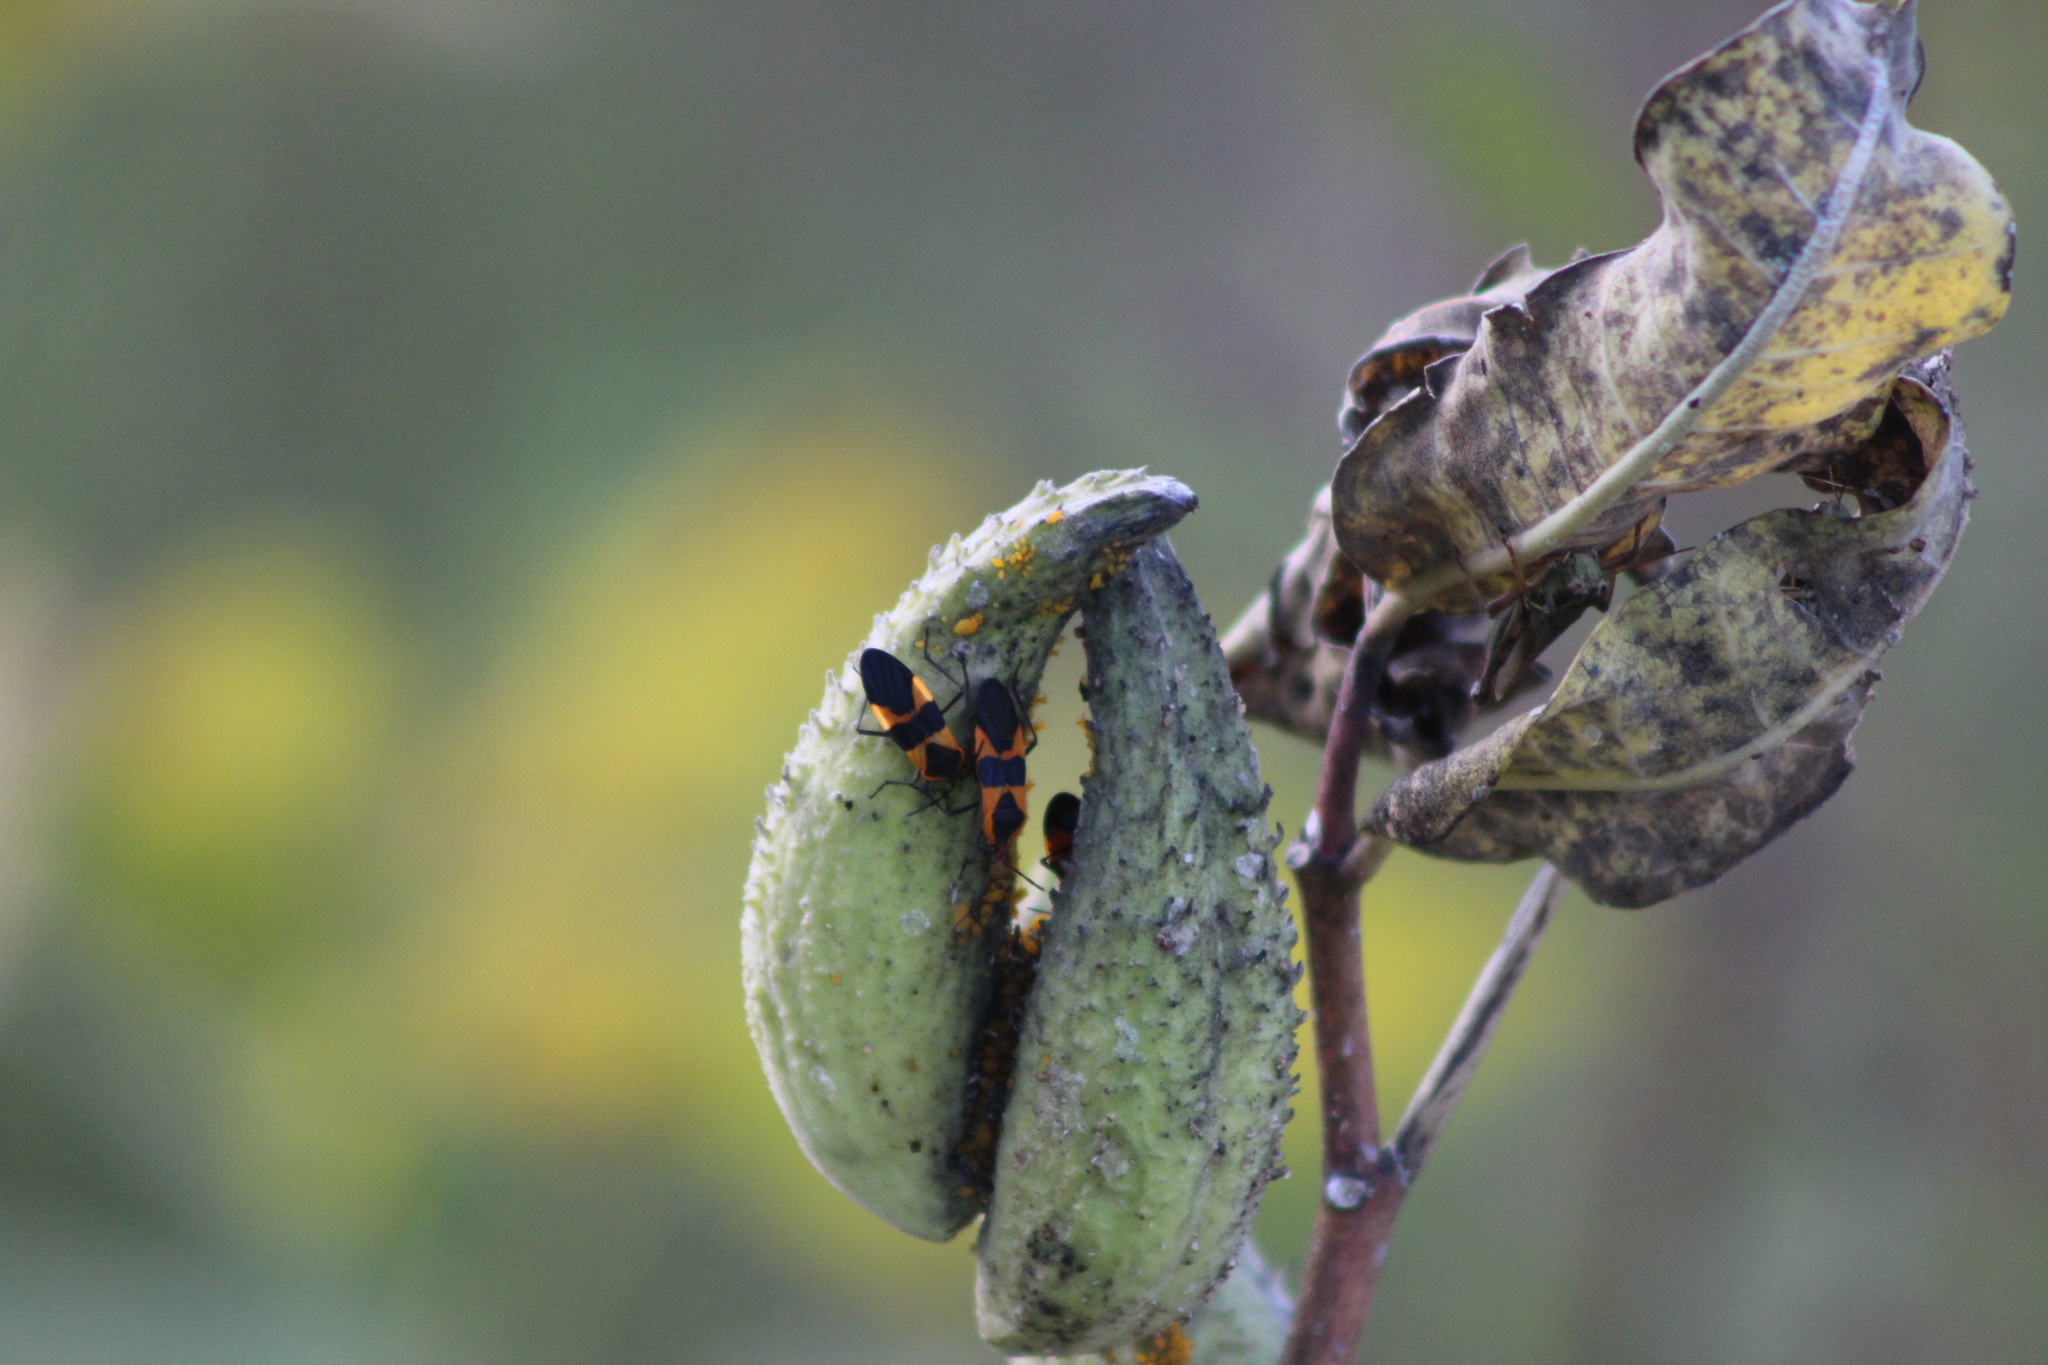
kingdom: Animalia
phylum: Arthropoda
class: Insecta
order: Hemiptera
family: Lygaeidae
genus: Oncopeltus
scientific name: Oncopeltus fasciatus
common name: Large milkweed bug
